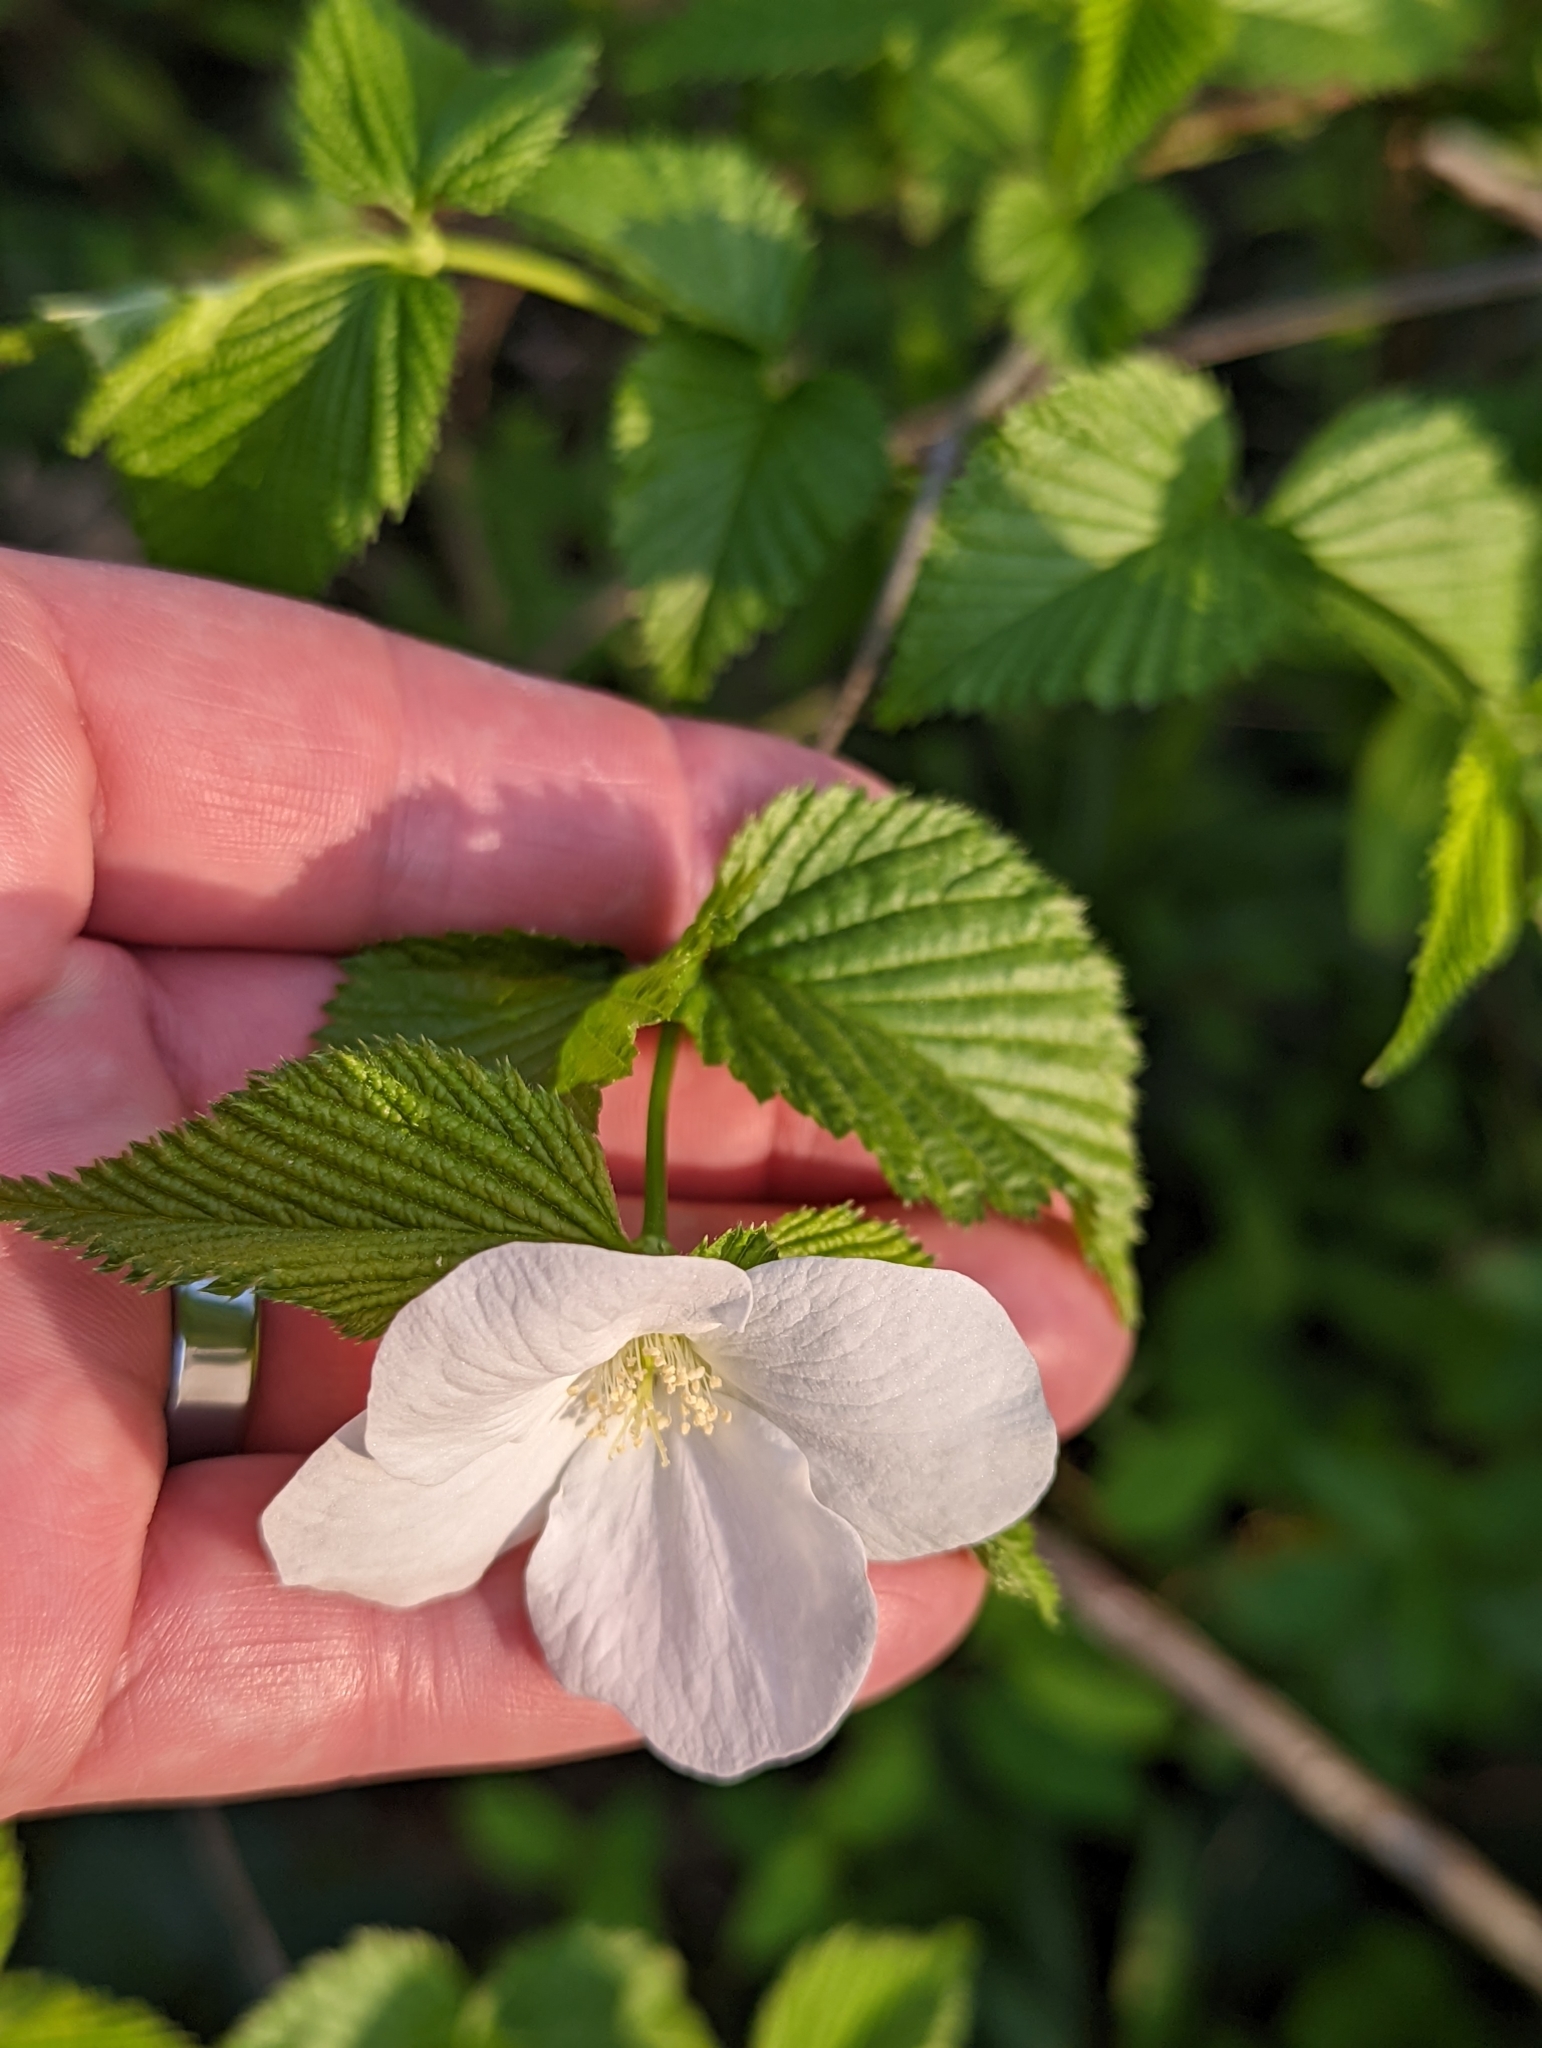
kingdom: Plantae
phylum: Tracheophyta
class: Magnoliopsida
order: Rosales
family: Rosaceae
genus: Rhodotypos
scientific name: Rhodotypos scandens
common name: Jetbead
